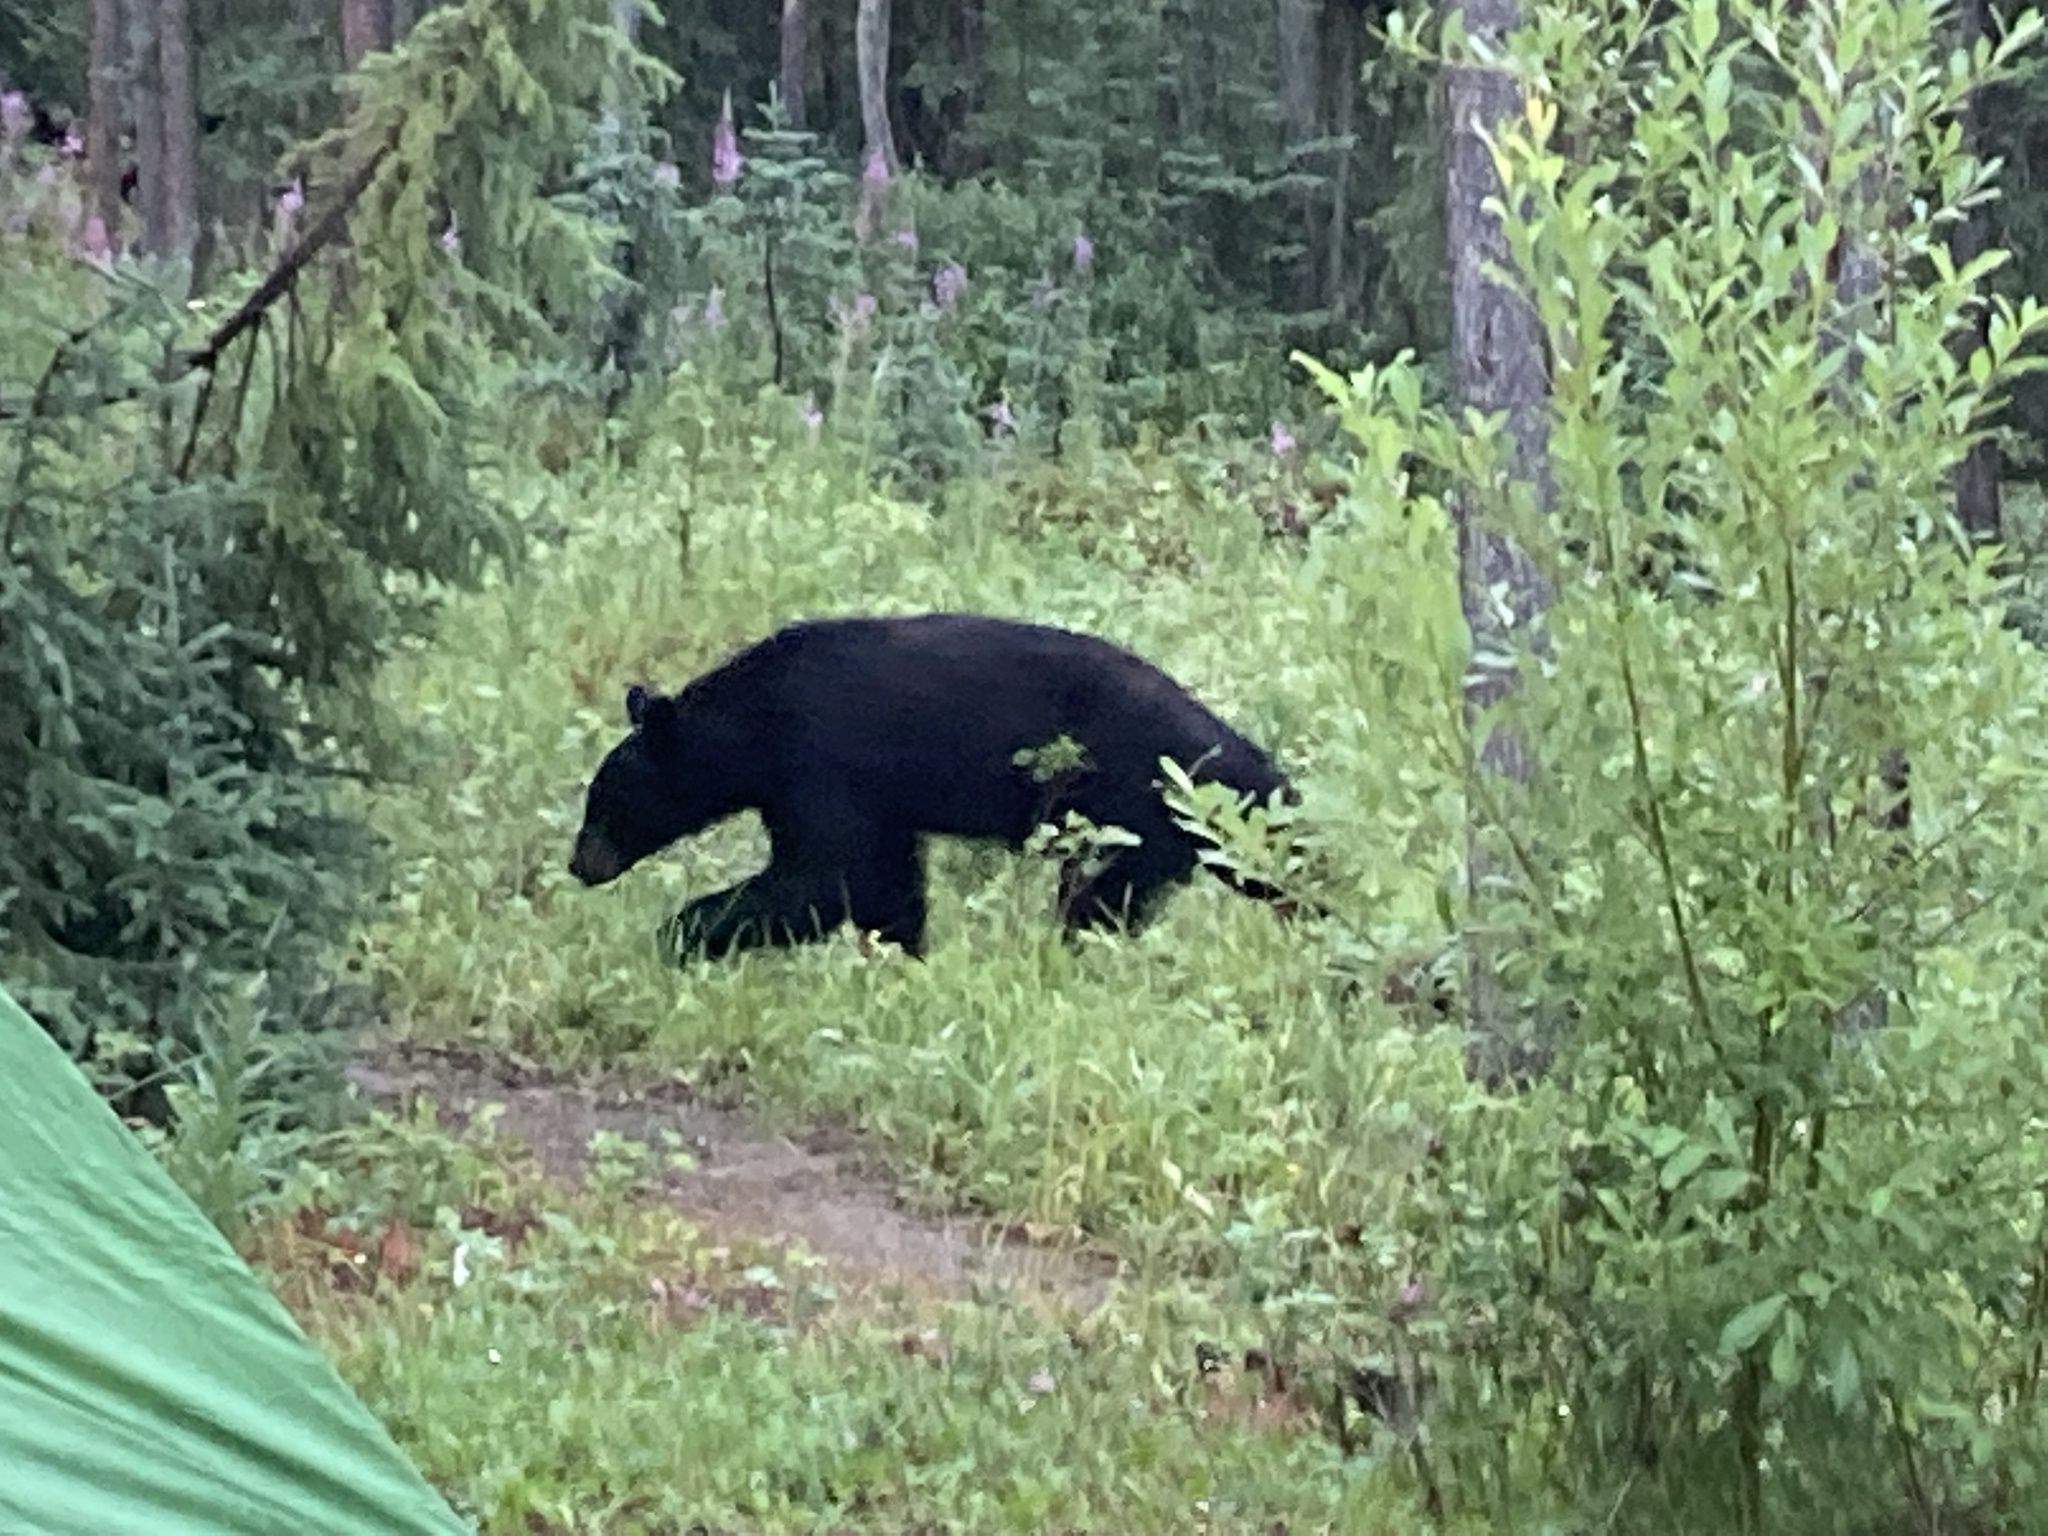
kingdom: Animalia
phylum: Chordata
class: Mammalia
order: Carnivora
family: Ursidae
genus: Ursus
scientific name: Ursus americanus
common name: American black bear
